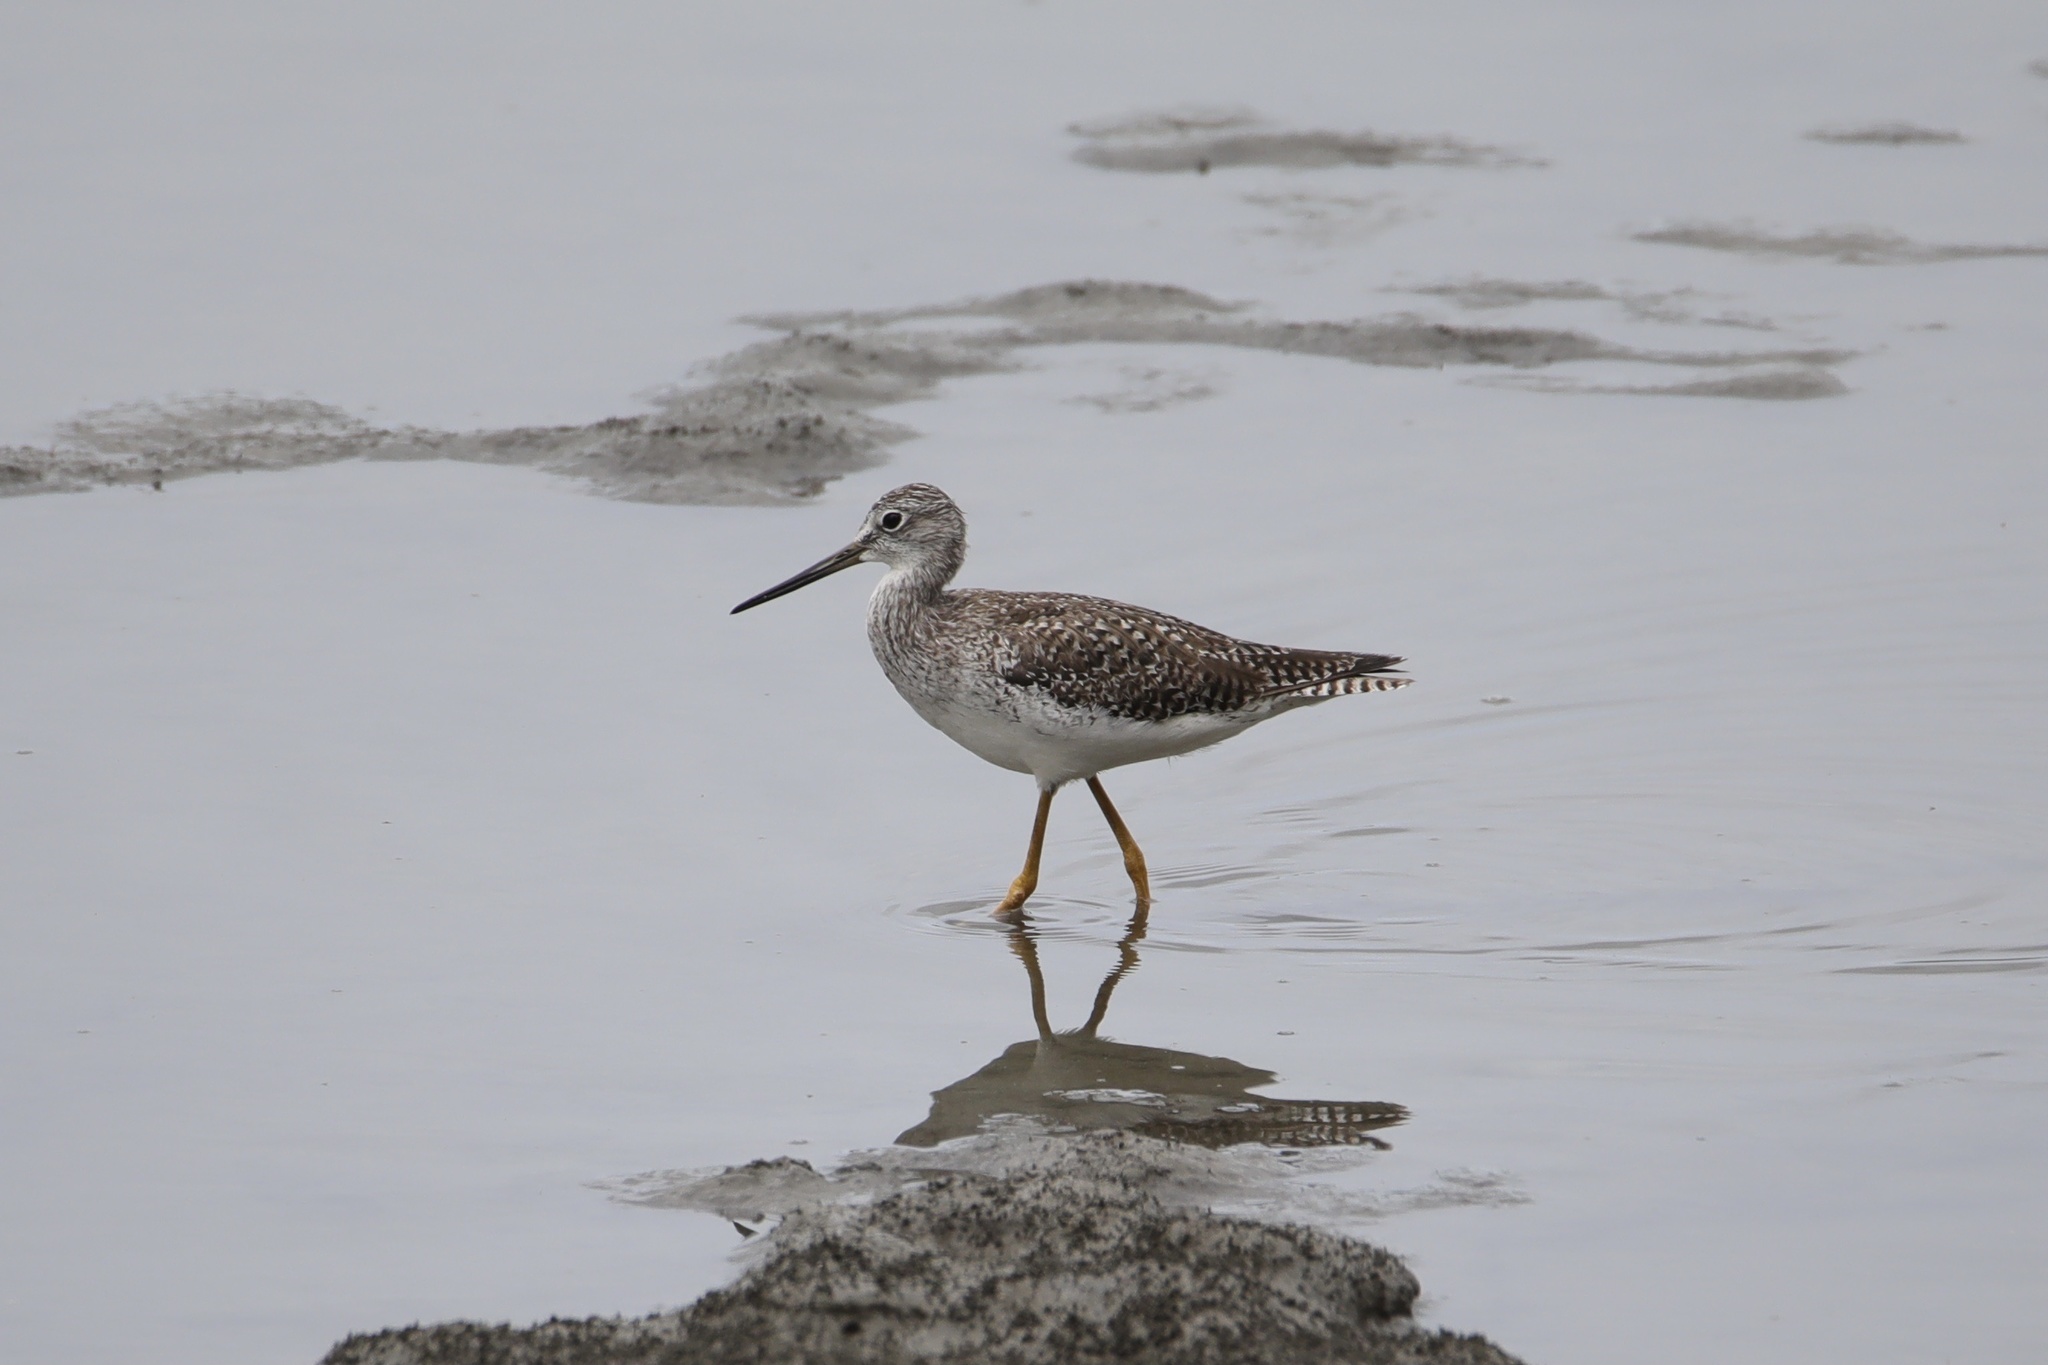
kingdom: Animalia
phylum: Chordata
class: Aves
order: Charadriiformes
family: Scolopacidae
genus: Tringa
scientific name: Tringa melanoleuca
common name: Greater yellowlegs
